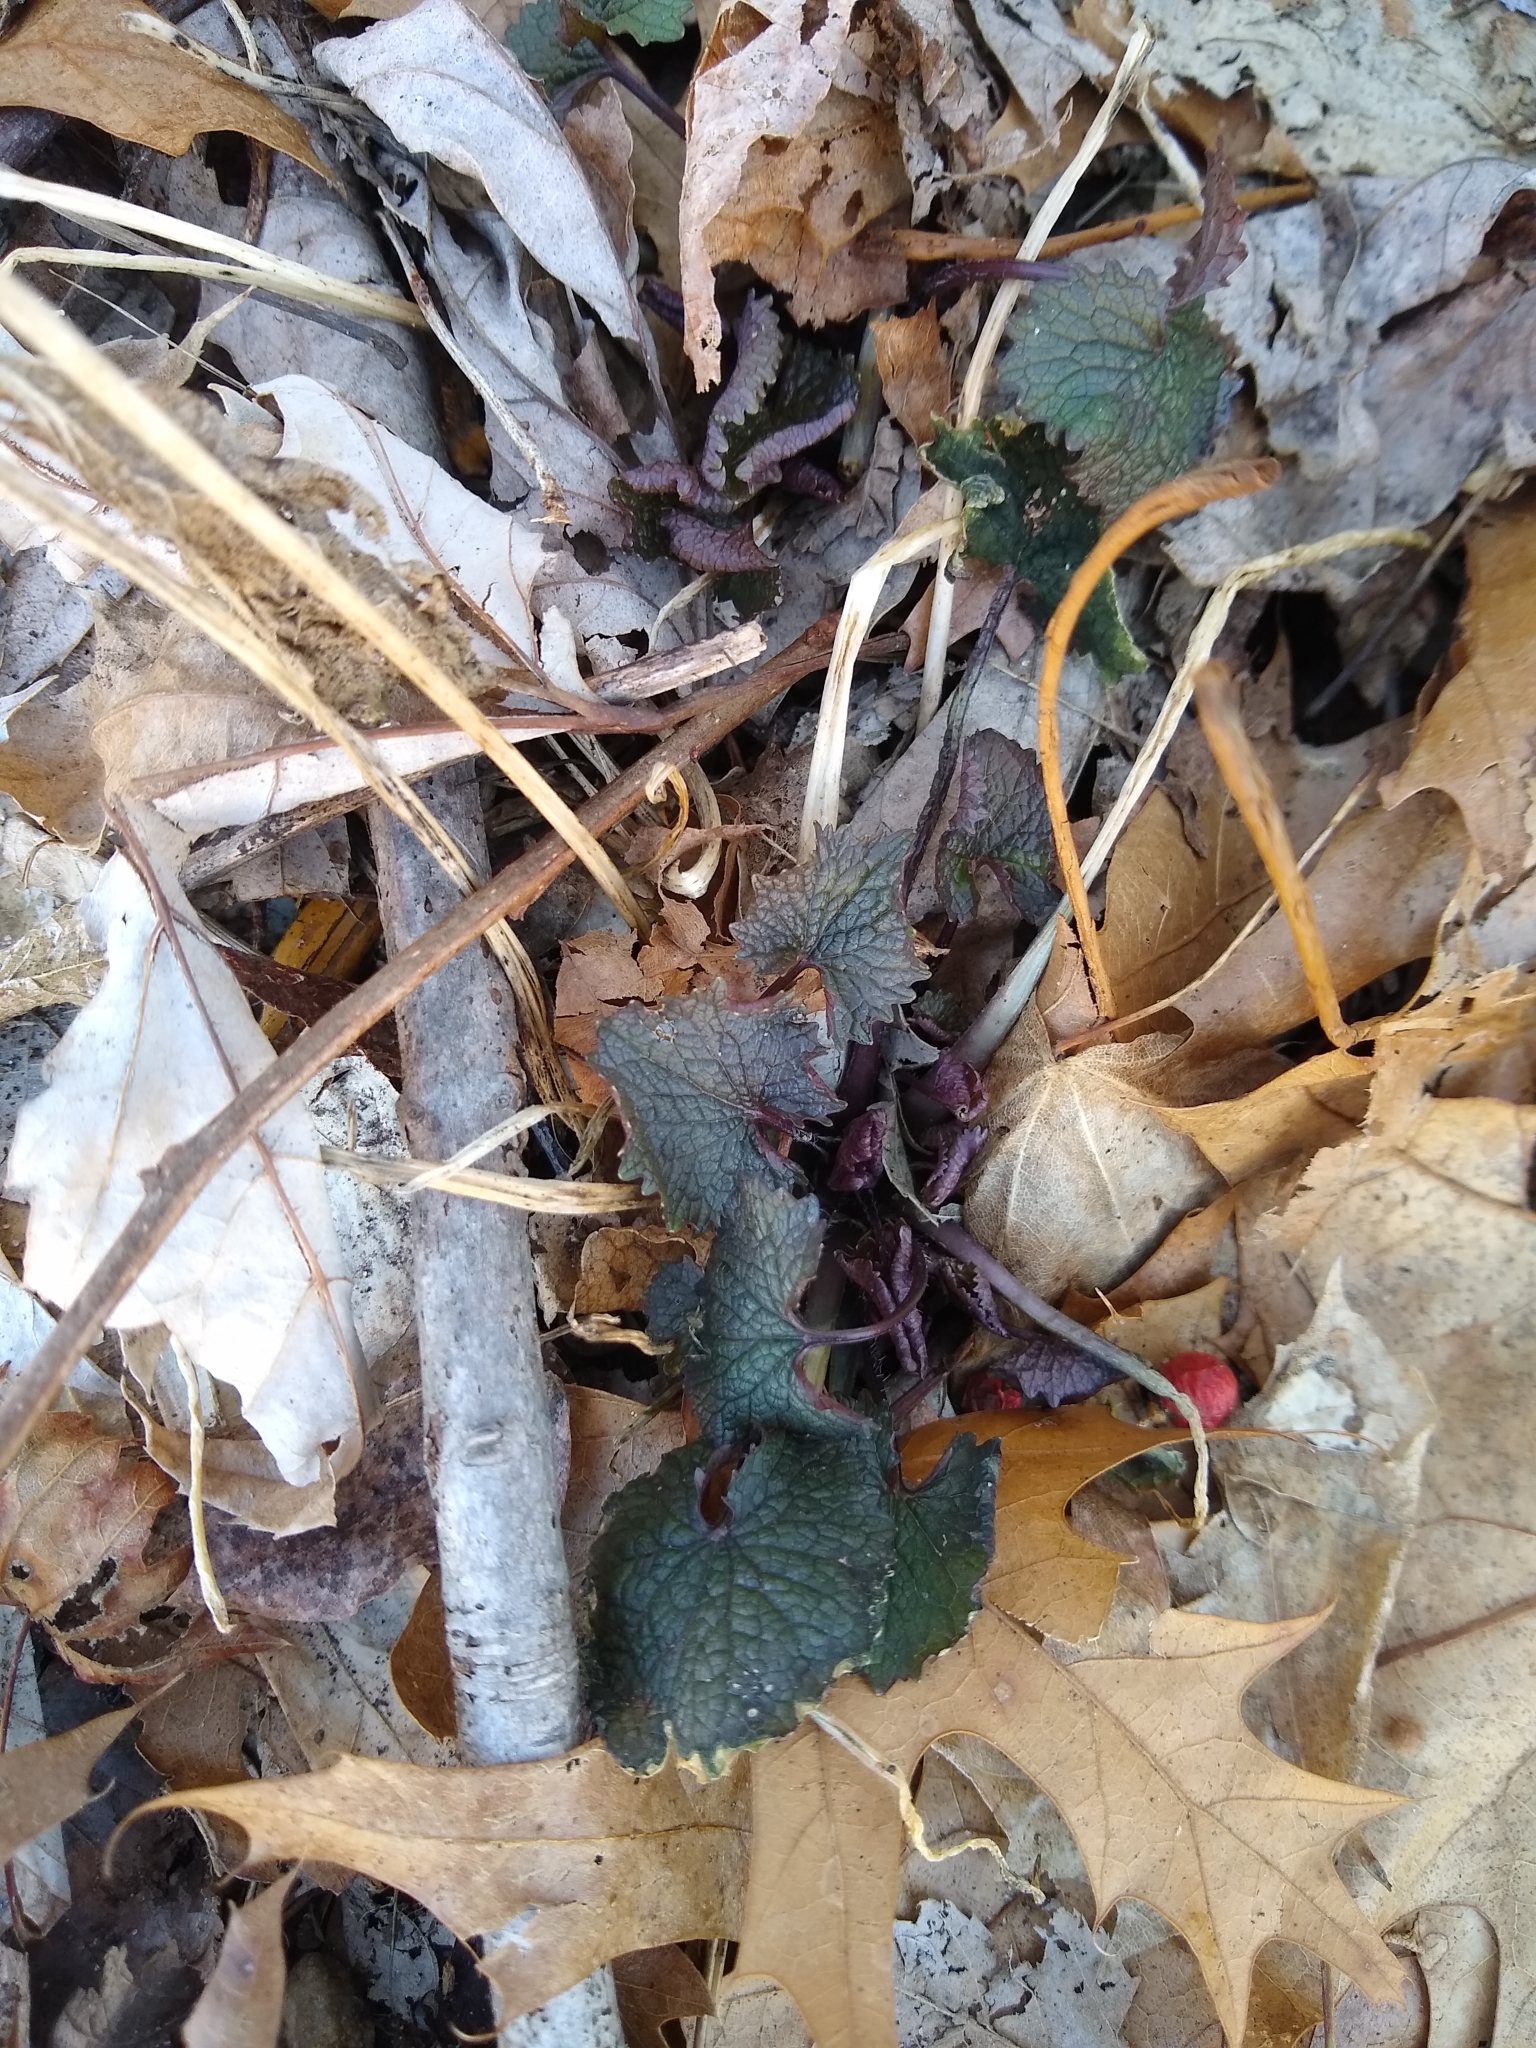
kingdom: Plantae
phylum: Tracheophyta
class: Magnoliopsida
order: Brassicales
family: Brassicaceae
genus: Alliaria
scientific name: Alliaria petiolata
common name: Garlic mustard
